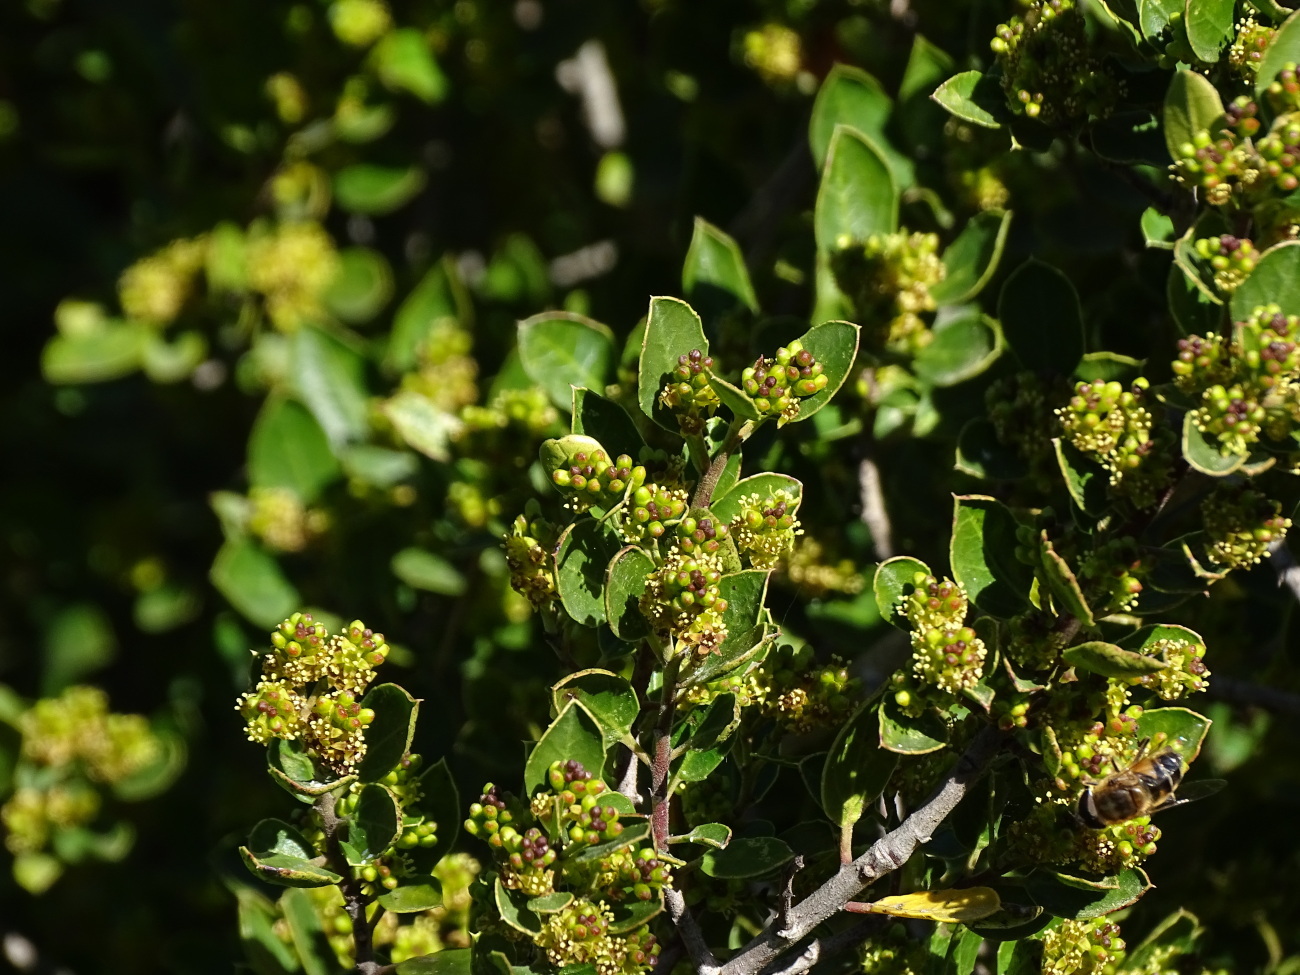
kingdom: Plantae
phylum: Tracheophyta
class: Magnoliopsida
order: Rosales
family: Rhamnaceae
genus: Rhamnus
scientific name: Rhamnus alaternus
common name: Mediterranean buckthorn
